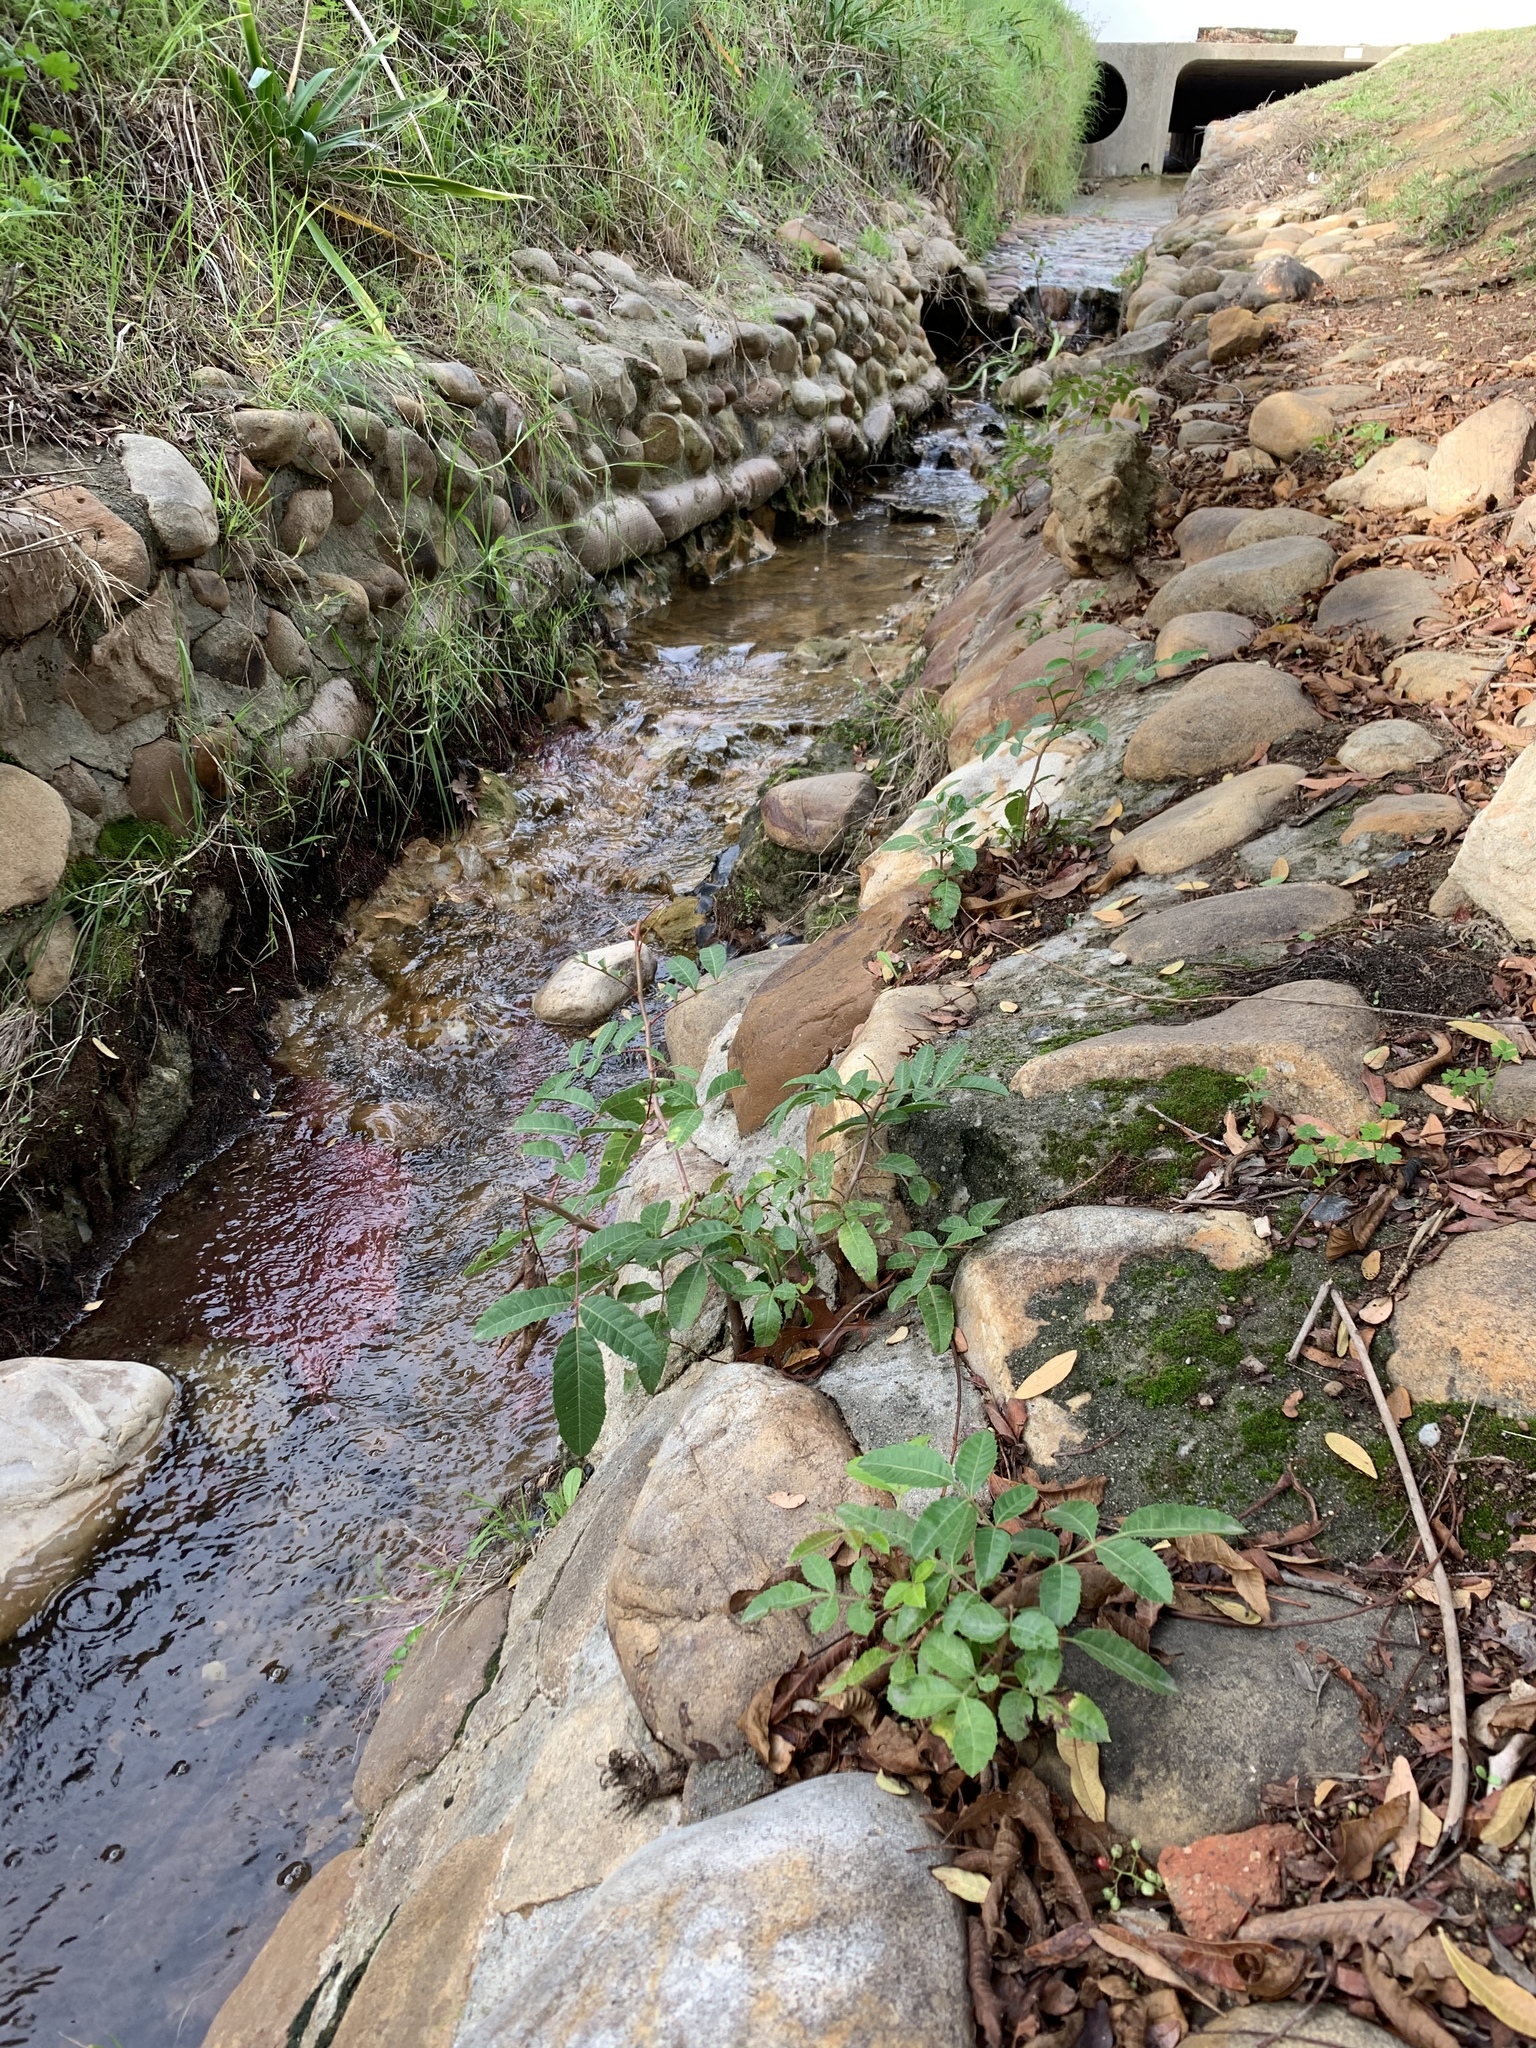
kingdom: Plantae
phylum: Tracheophyta
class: Magnoliopsida
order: Sapindales
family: Anacardiaceae
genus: Schinus
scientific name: Schinus terebinthifolia
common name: Brazilian peppertree
